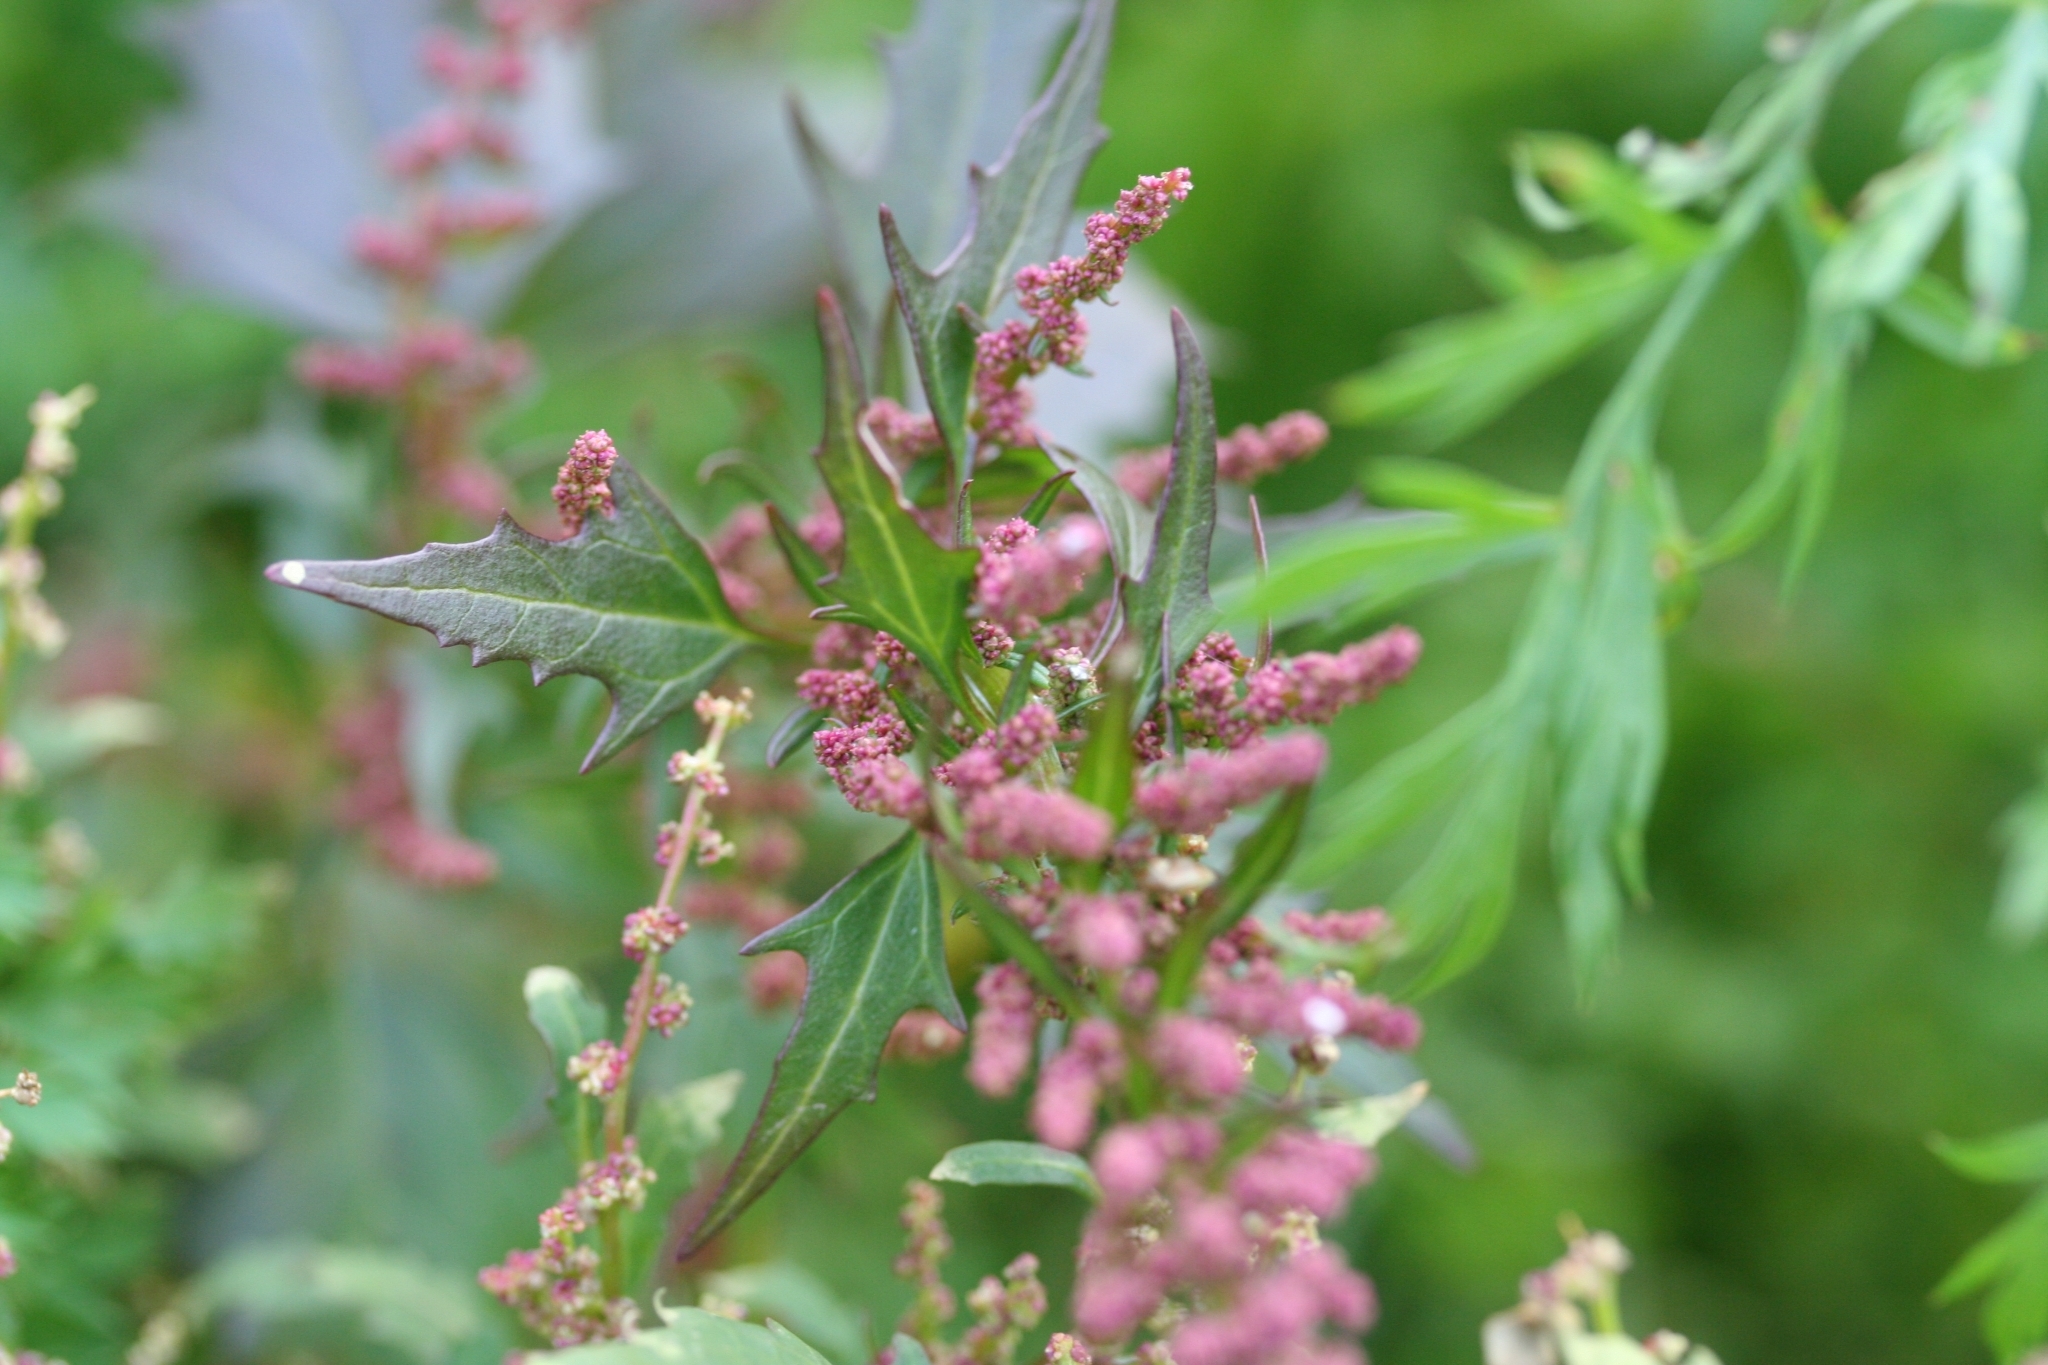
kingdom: Plantae
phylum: Tracheophyta
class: Magnoliopsida
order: Caryophyllales
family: Amaranthaceae
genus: Oxybasis
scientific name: Oxybasis rubra
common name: Red goosefoot
